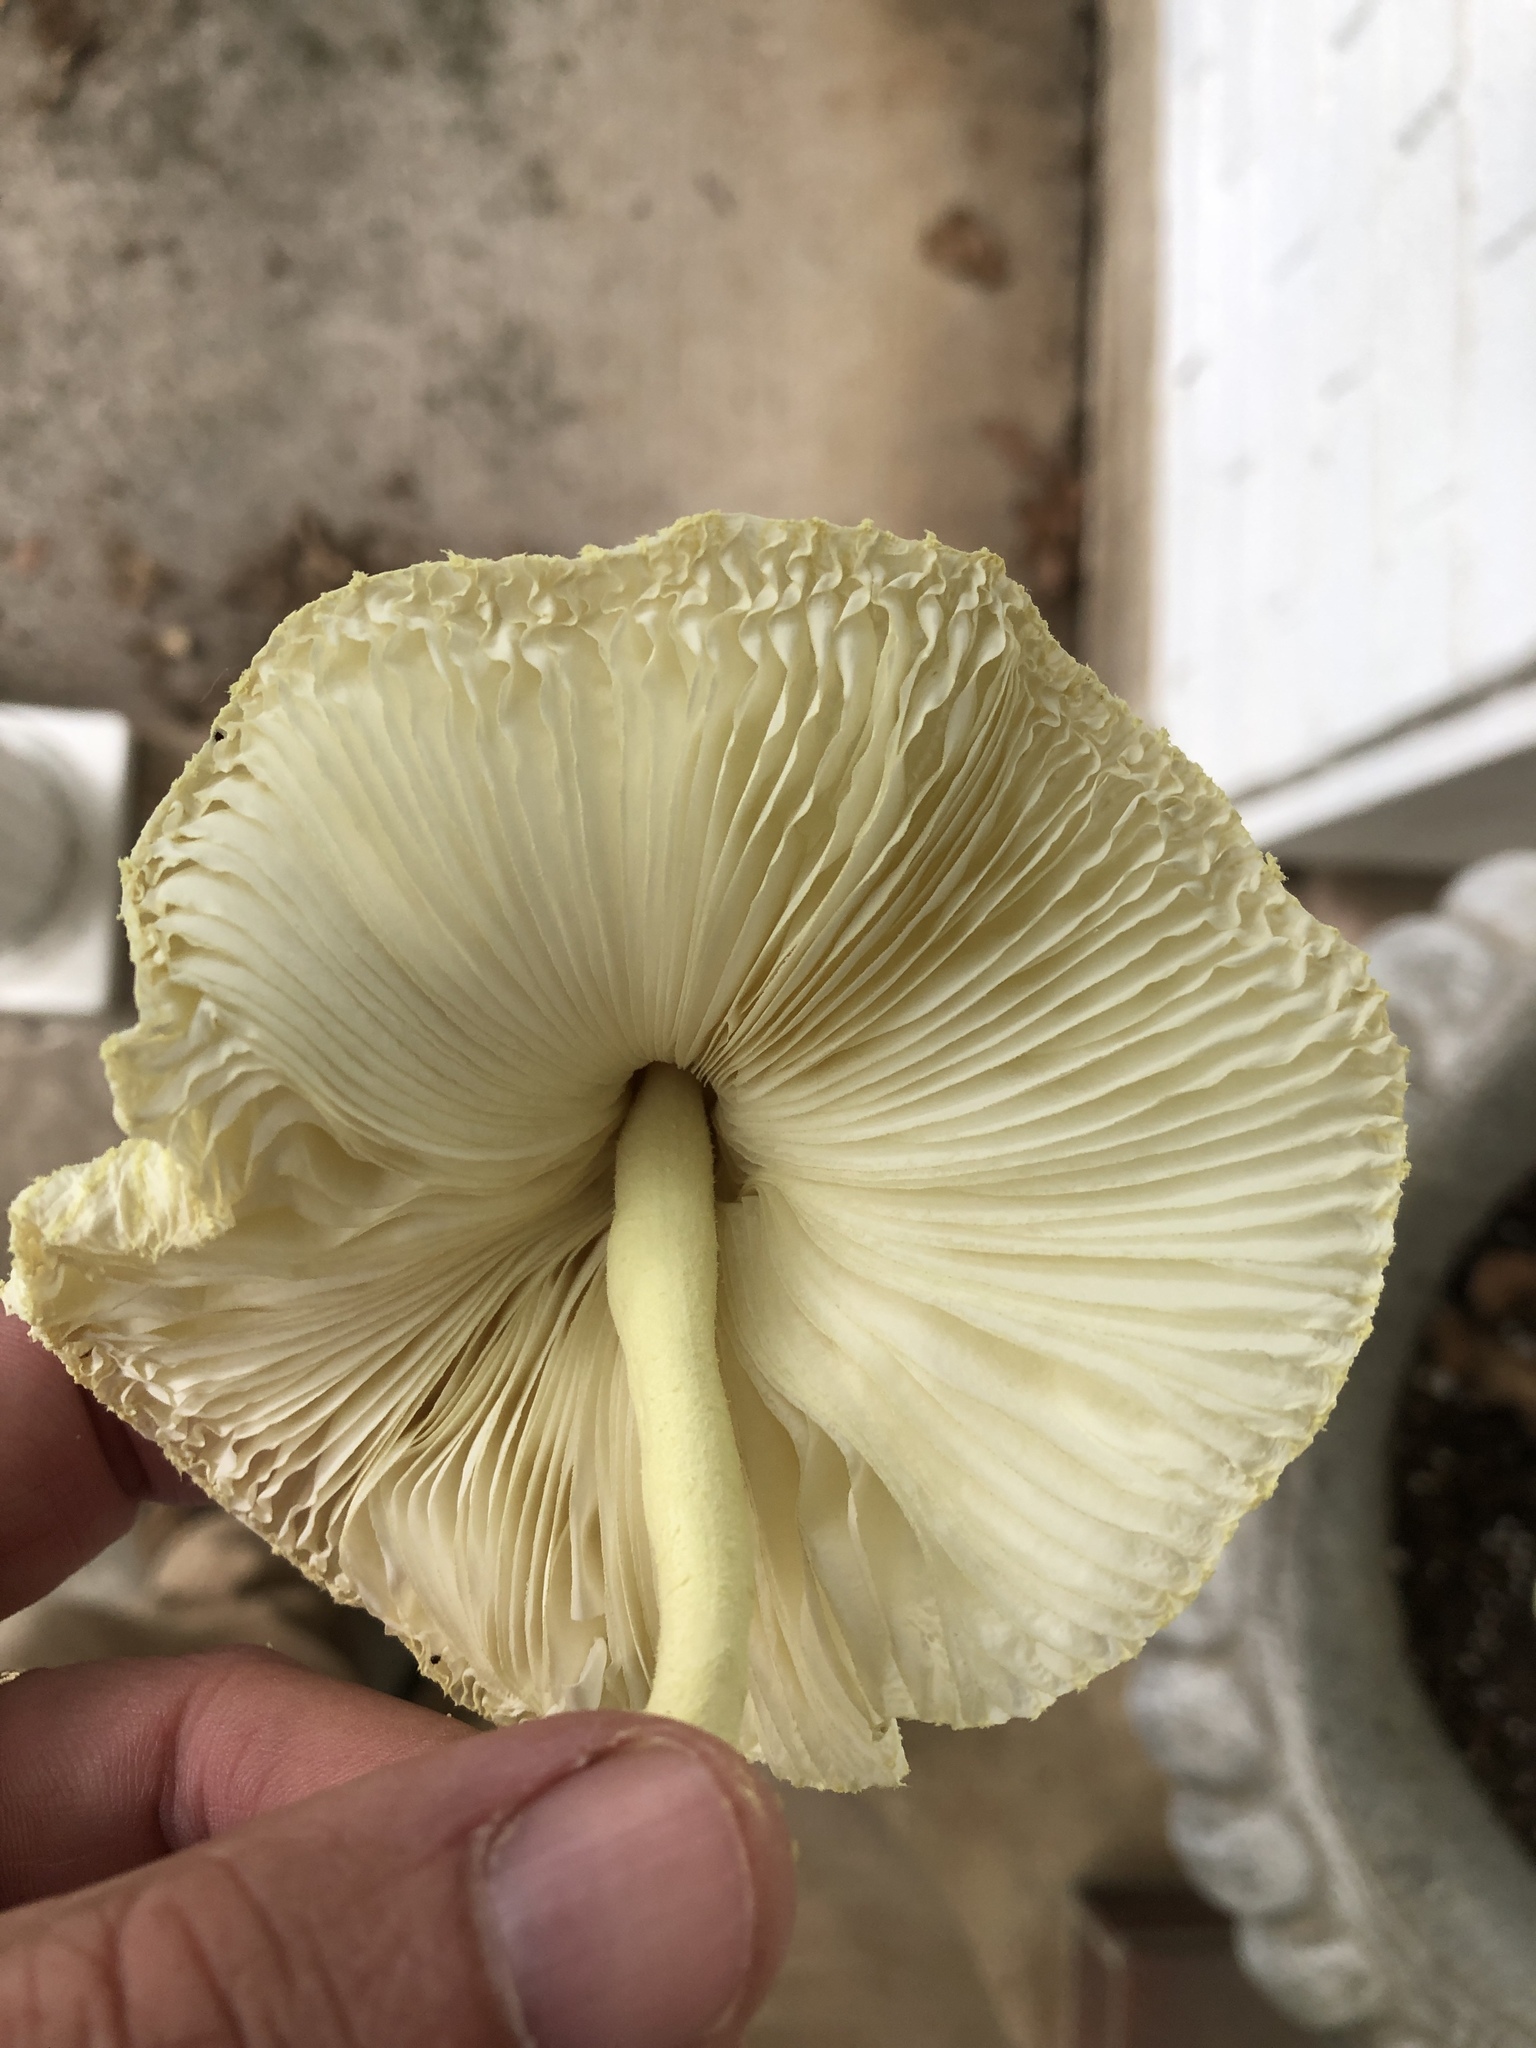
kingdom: Fungi
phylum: Basidiomycota
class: Agaricomycetes
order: Agaricales
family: Agaricaceae
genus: Leucocoprinus
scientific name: Leucocoprinus birnbaumii
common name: Plantpot dapperling
